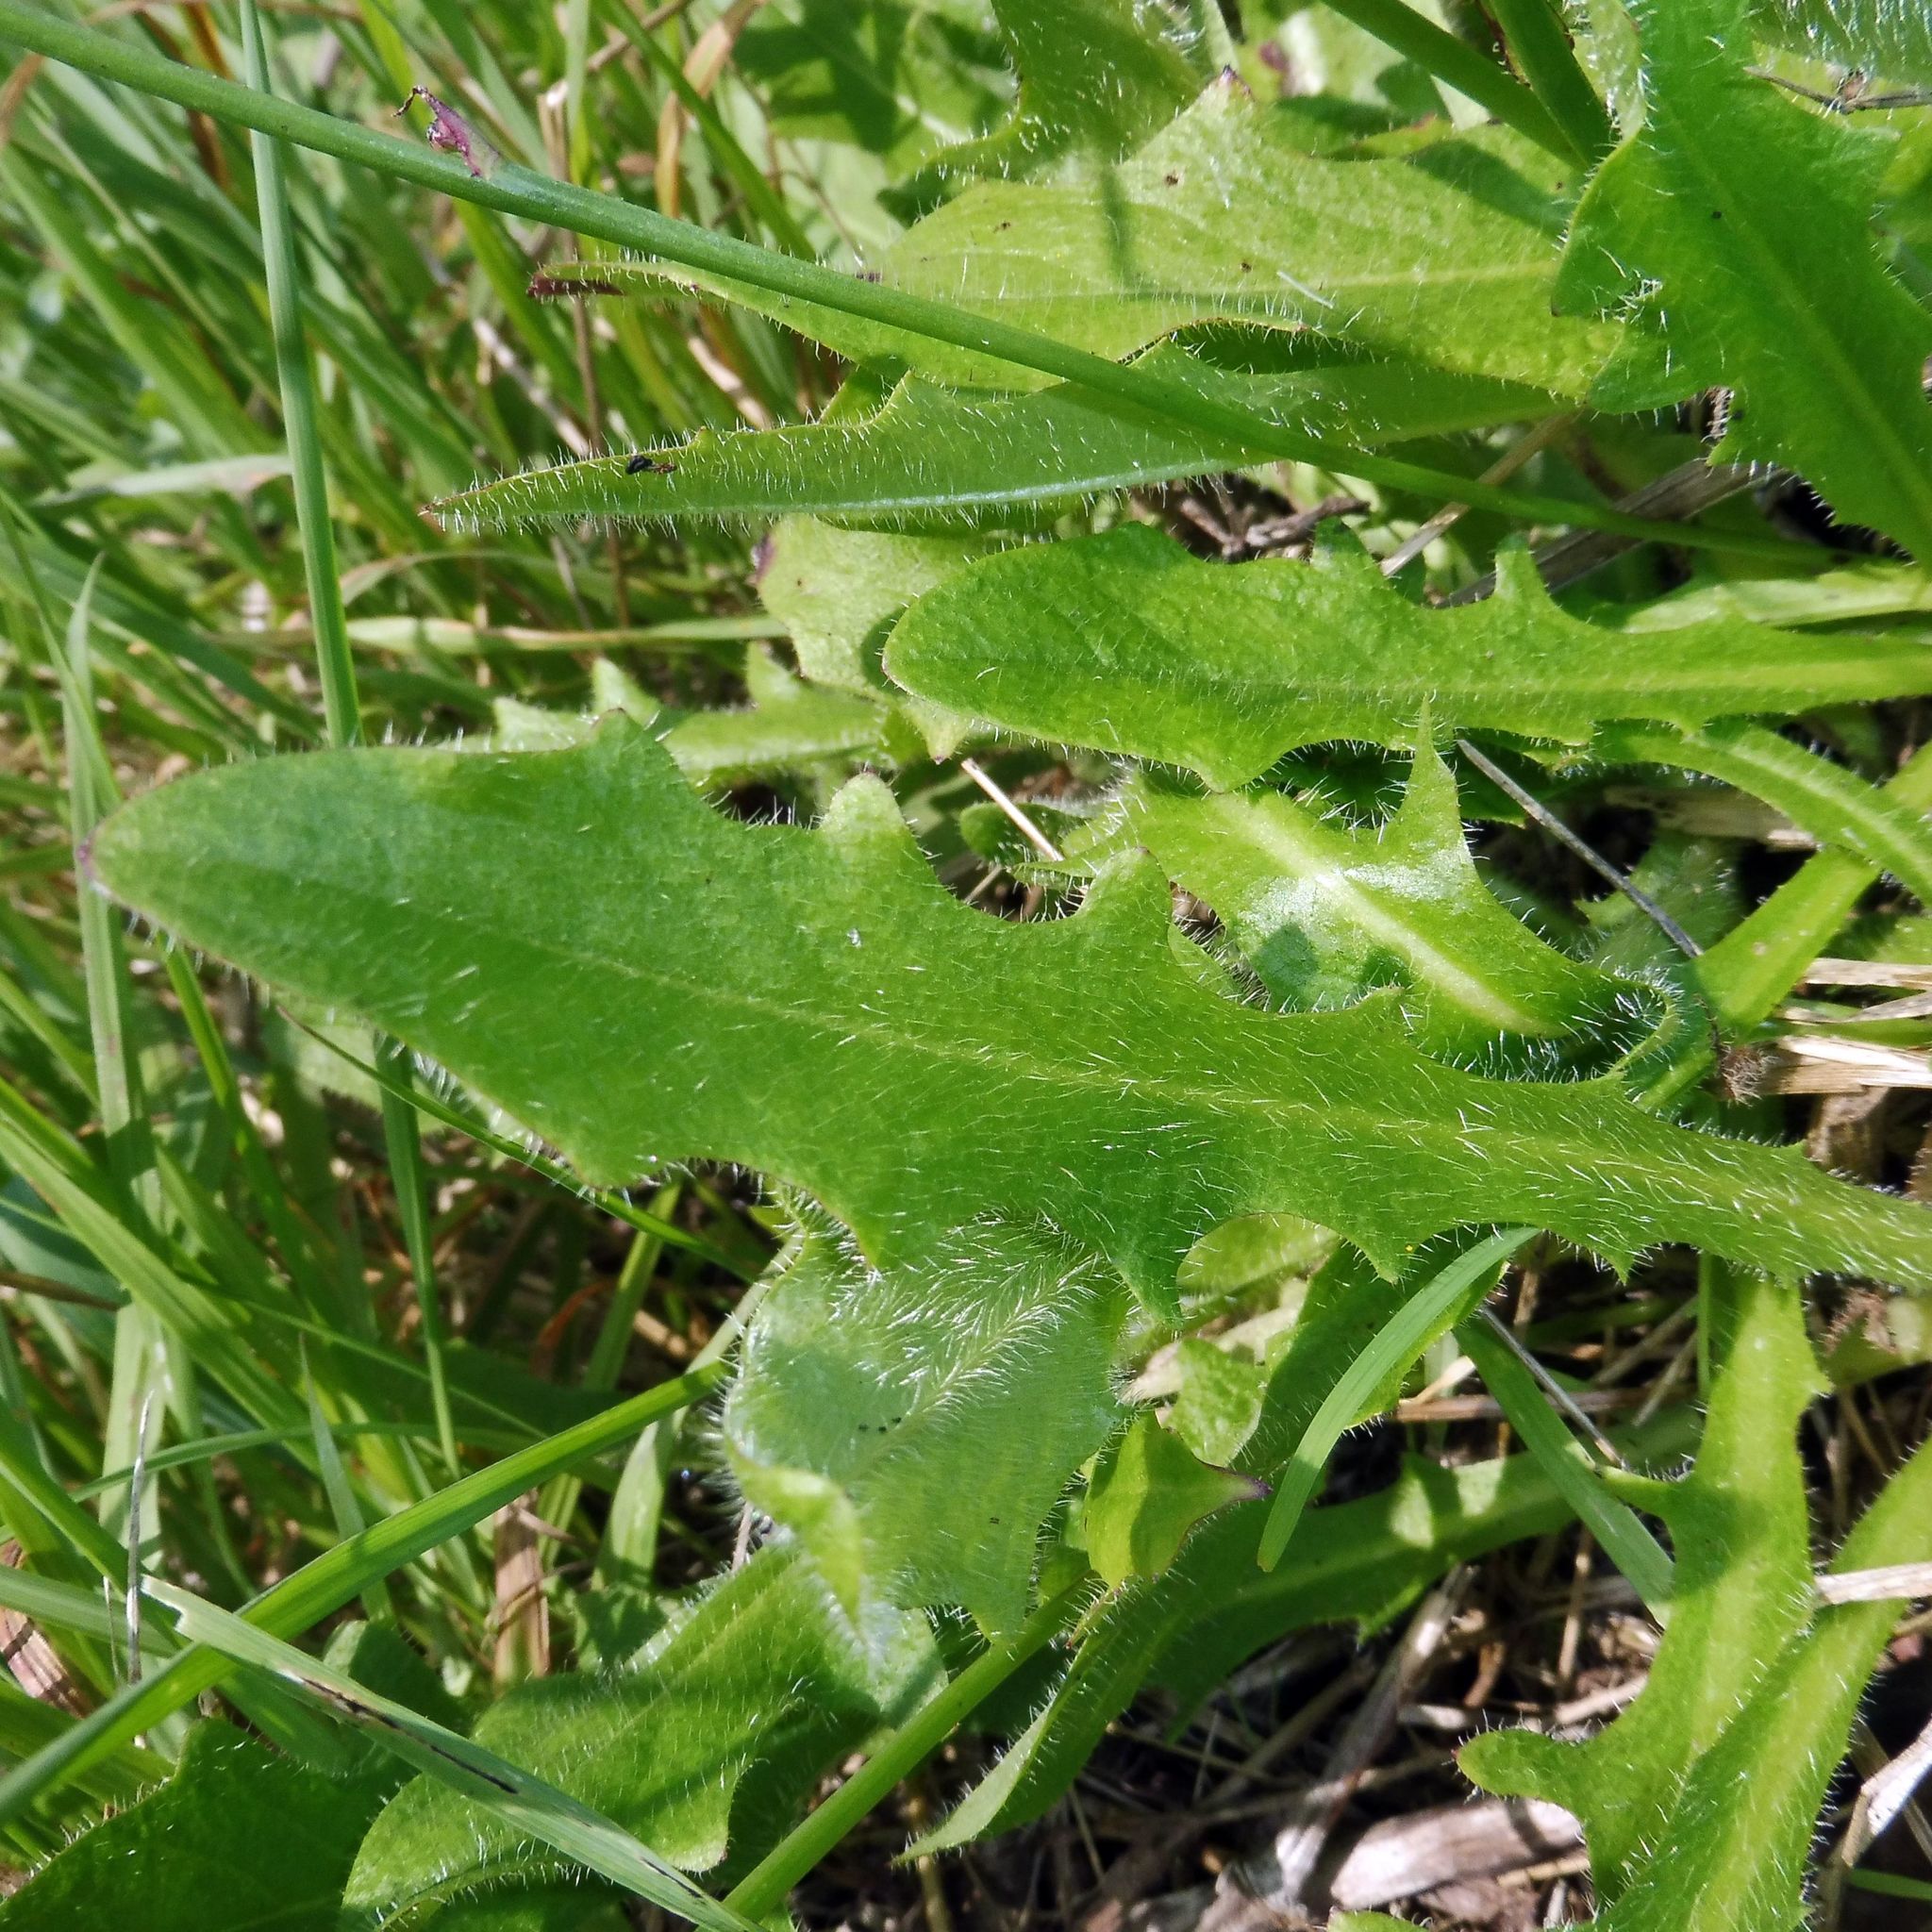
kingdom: Plantae
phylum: Tracheophyta
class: Magnoliopsida
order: Asterales
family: Asteraceae
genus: Hypochaeris
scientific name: Hypochaeris radicata
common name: Flatweed
